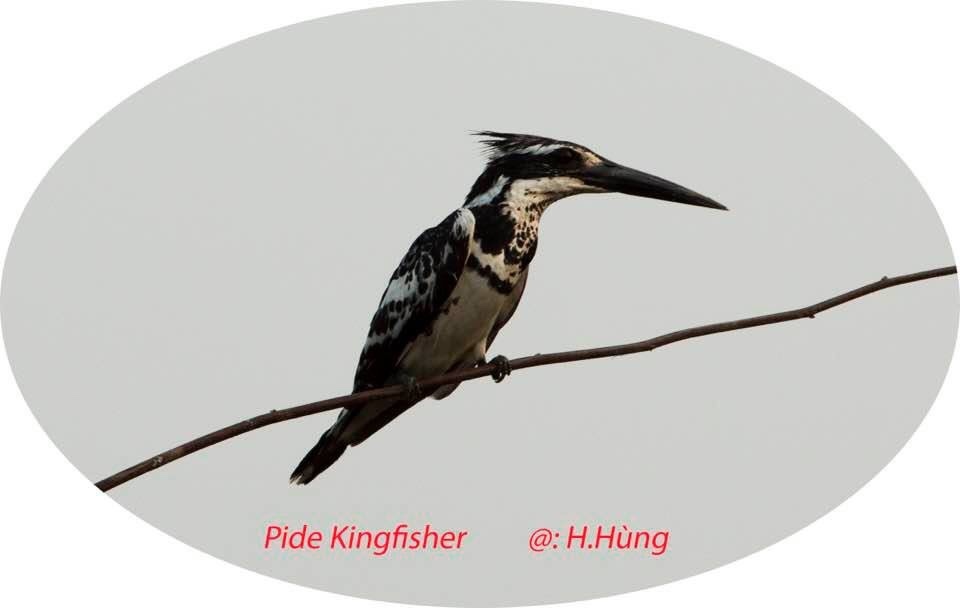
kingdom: Animalia
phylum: Chordata
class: Aves
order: Coraciiformes
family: Alcedinidae
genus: Ceryle
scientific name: Ceryle rudis
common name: Pied kingfisher
